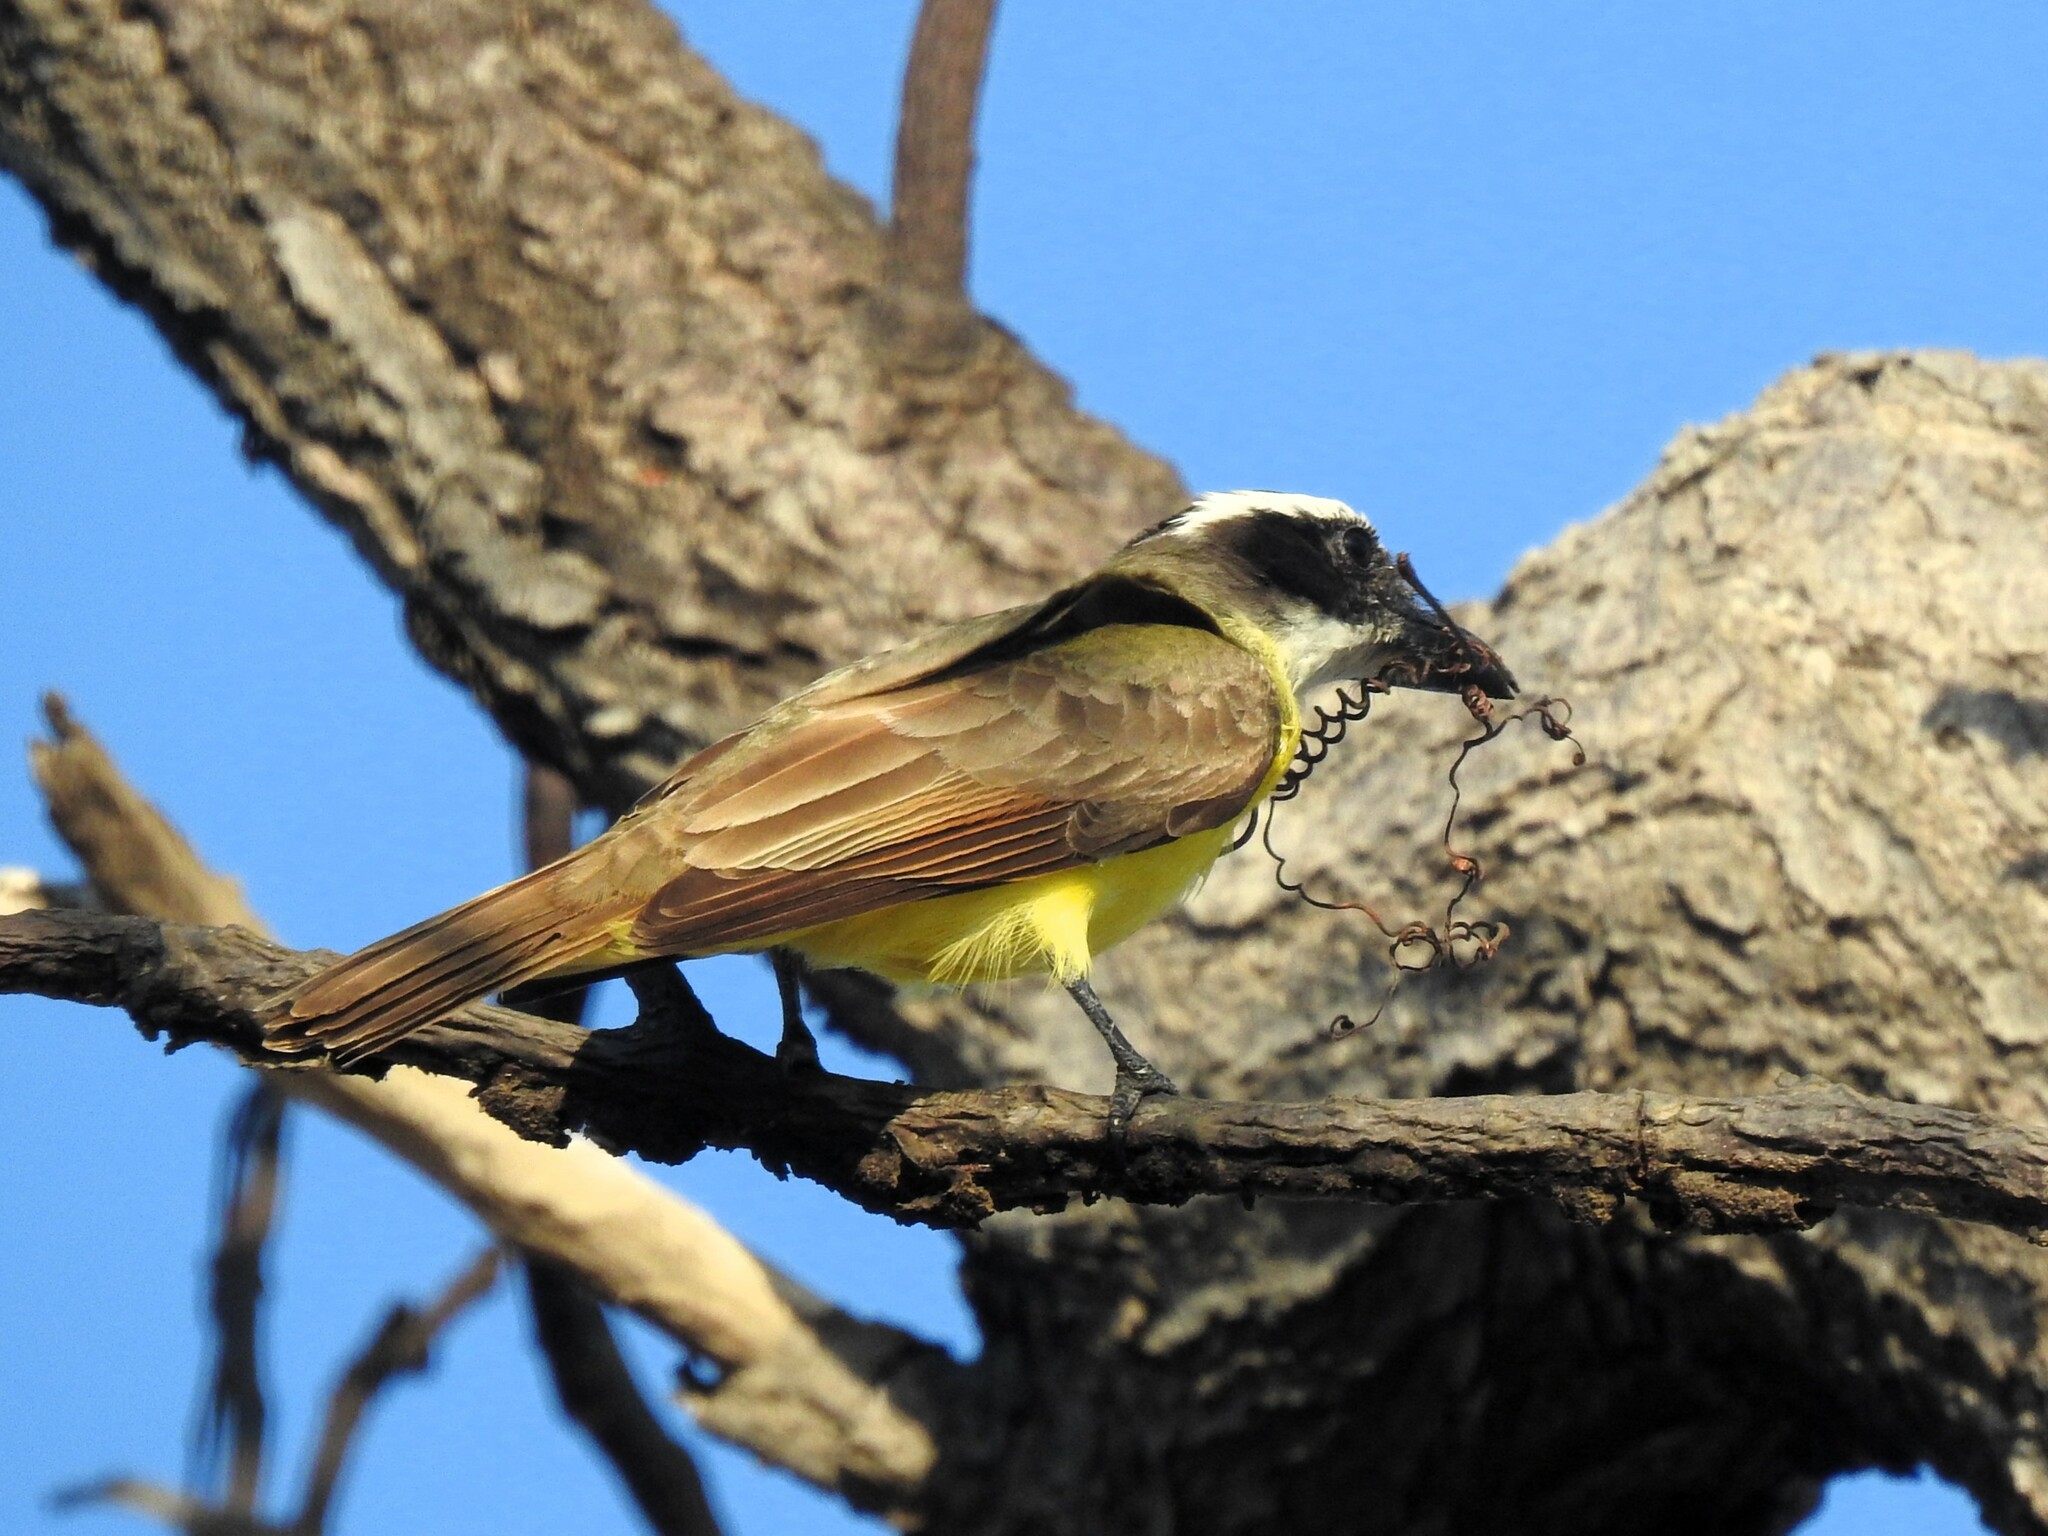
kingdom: Animalia
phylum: Chordata
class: Aves
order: Passeriformes
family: Tyrannidae
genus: Megarynchus
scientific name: Megarynchus pitangua
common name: Boat-billed flycatcher
